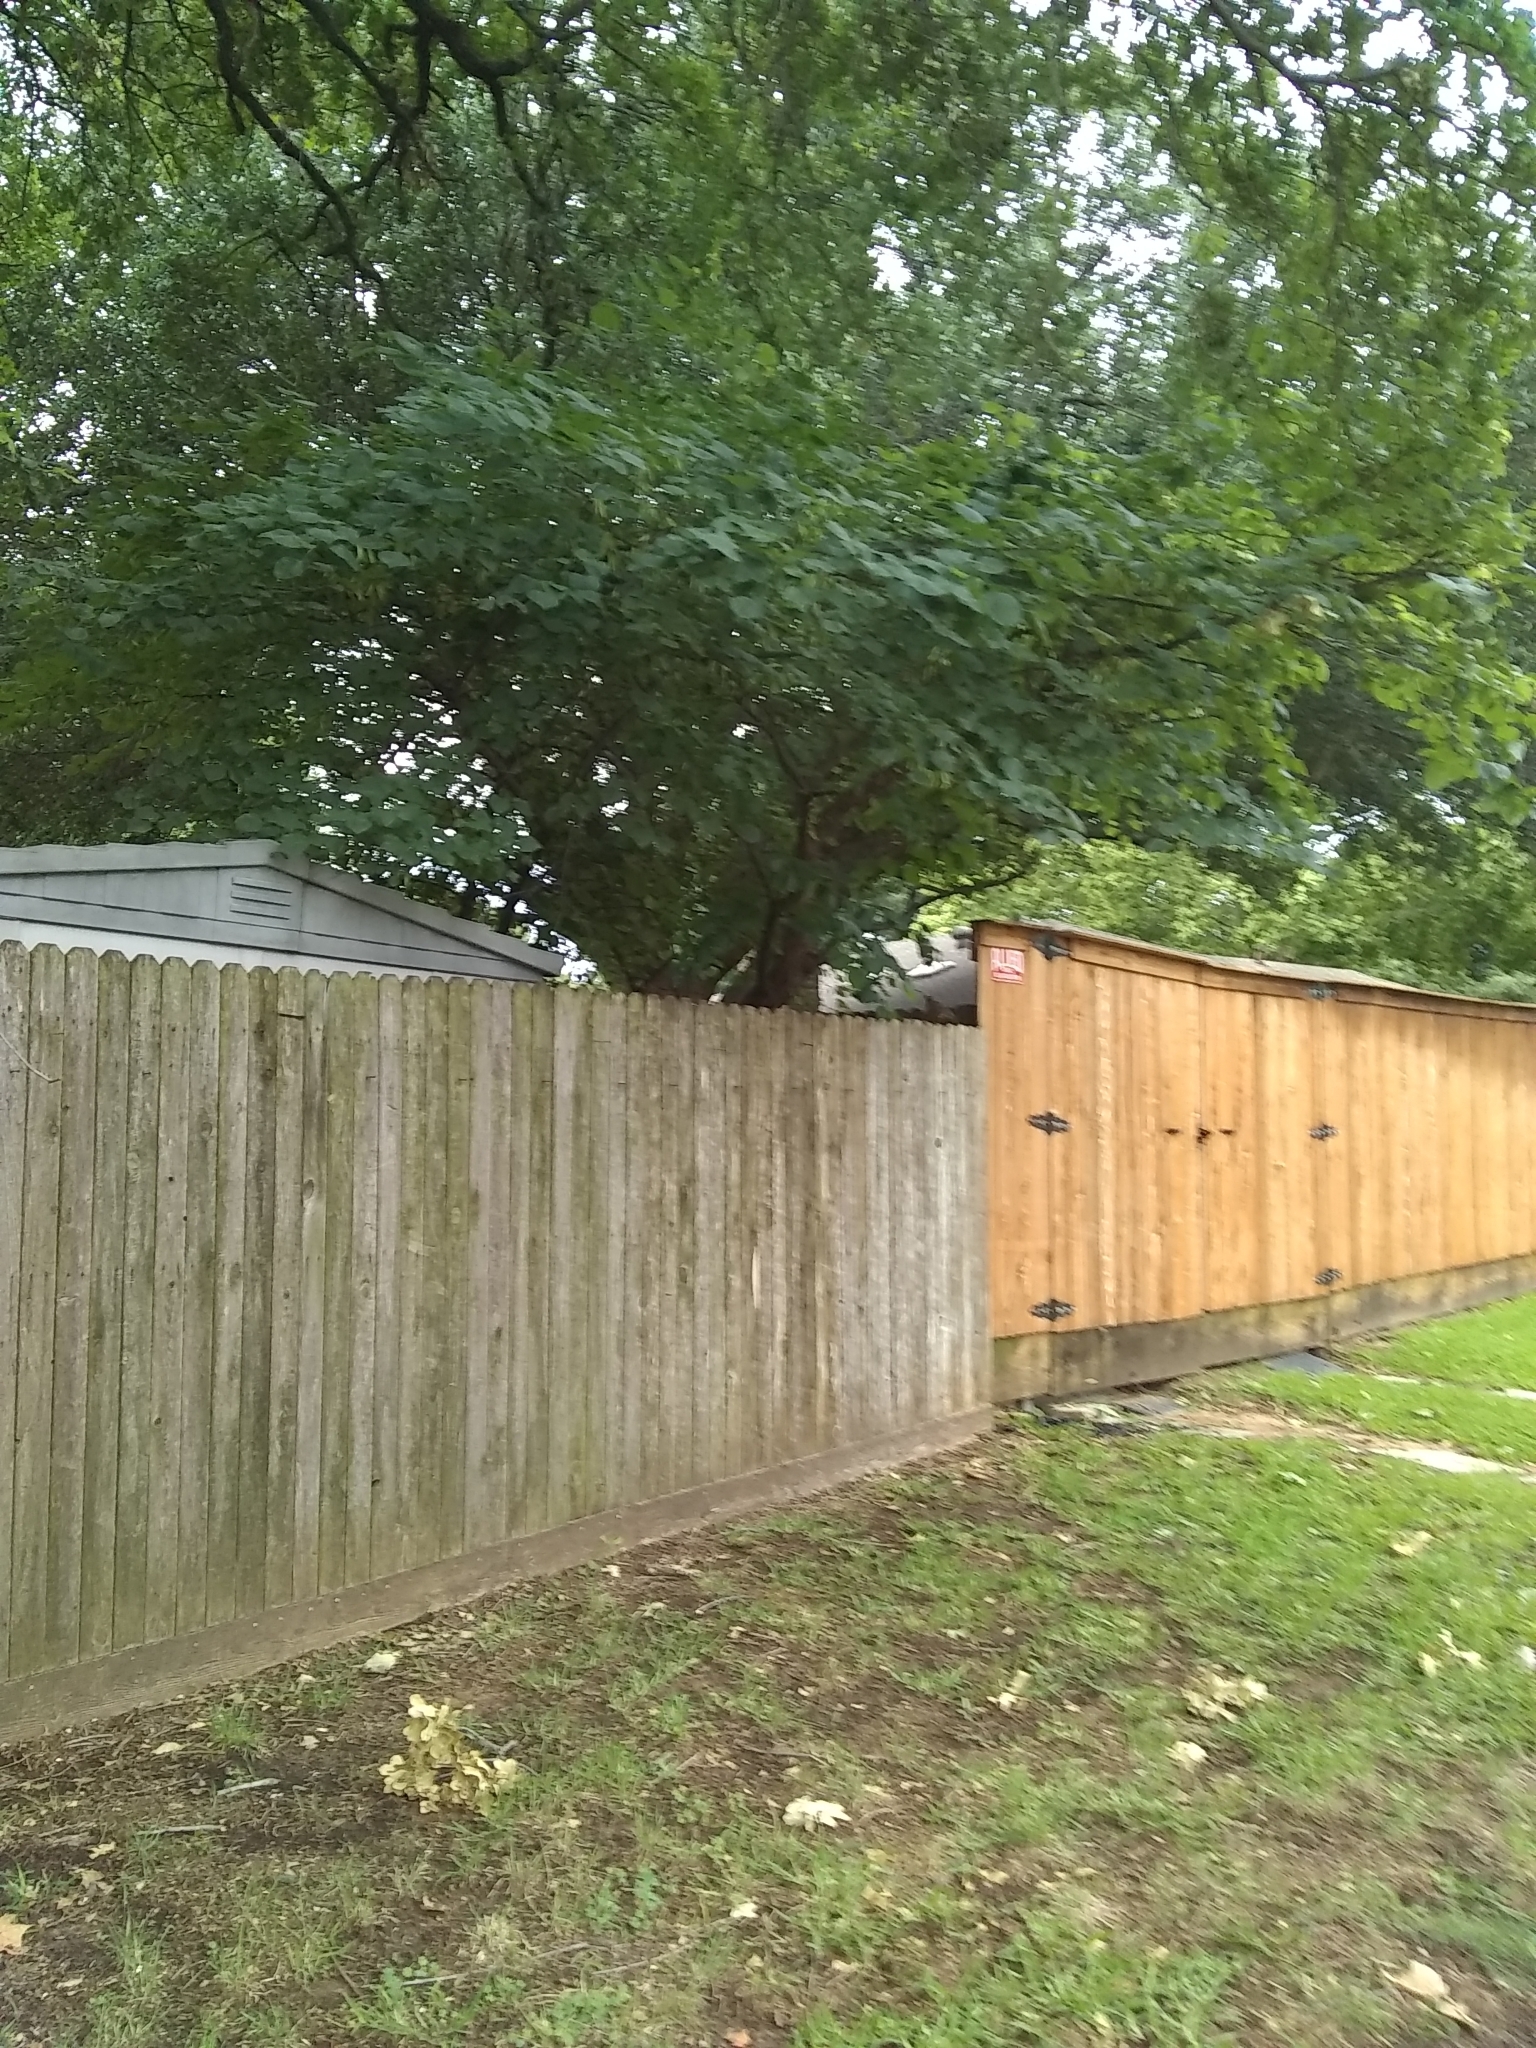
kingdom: Animalia
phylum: Chordata
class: Aves
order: Passeriformes
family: Turdidae
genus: Turdus
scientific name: Turdus migratorius
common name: American robin
